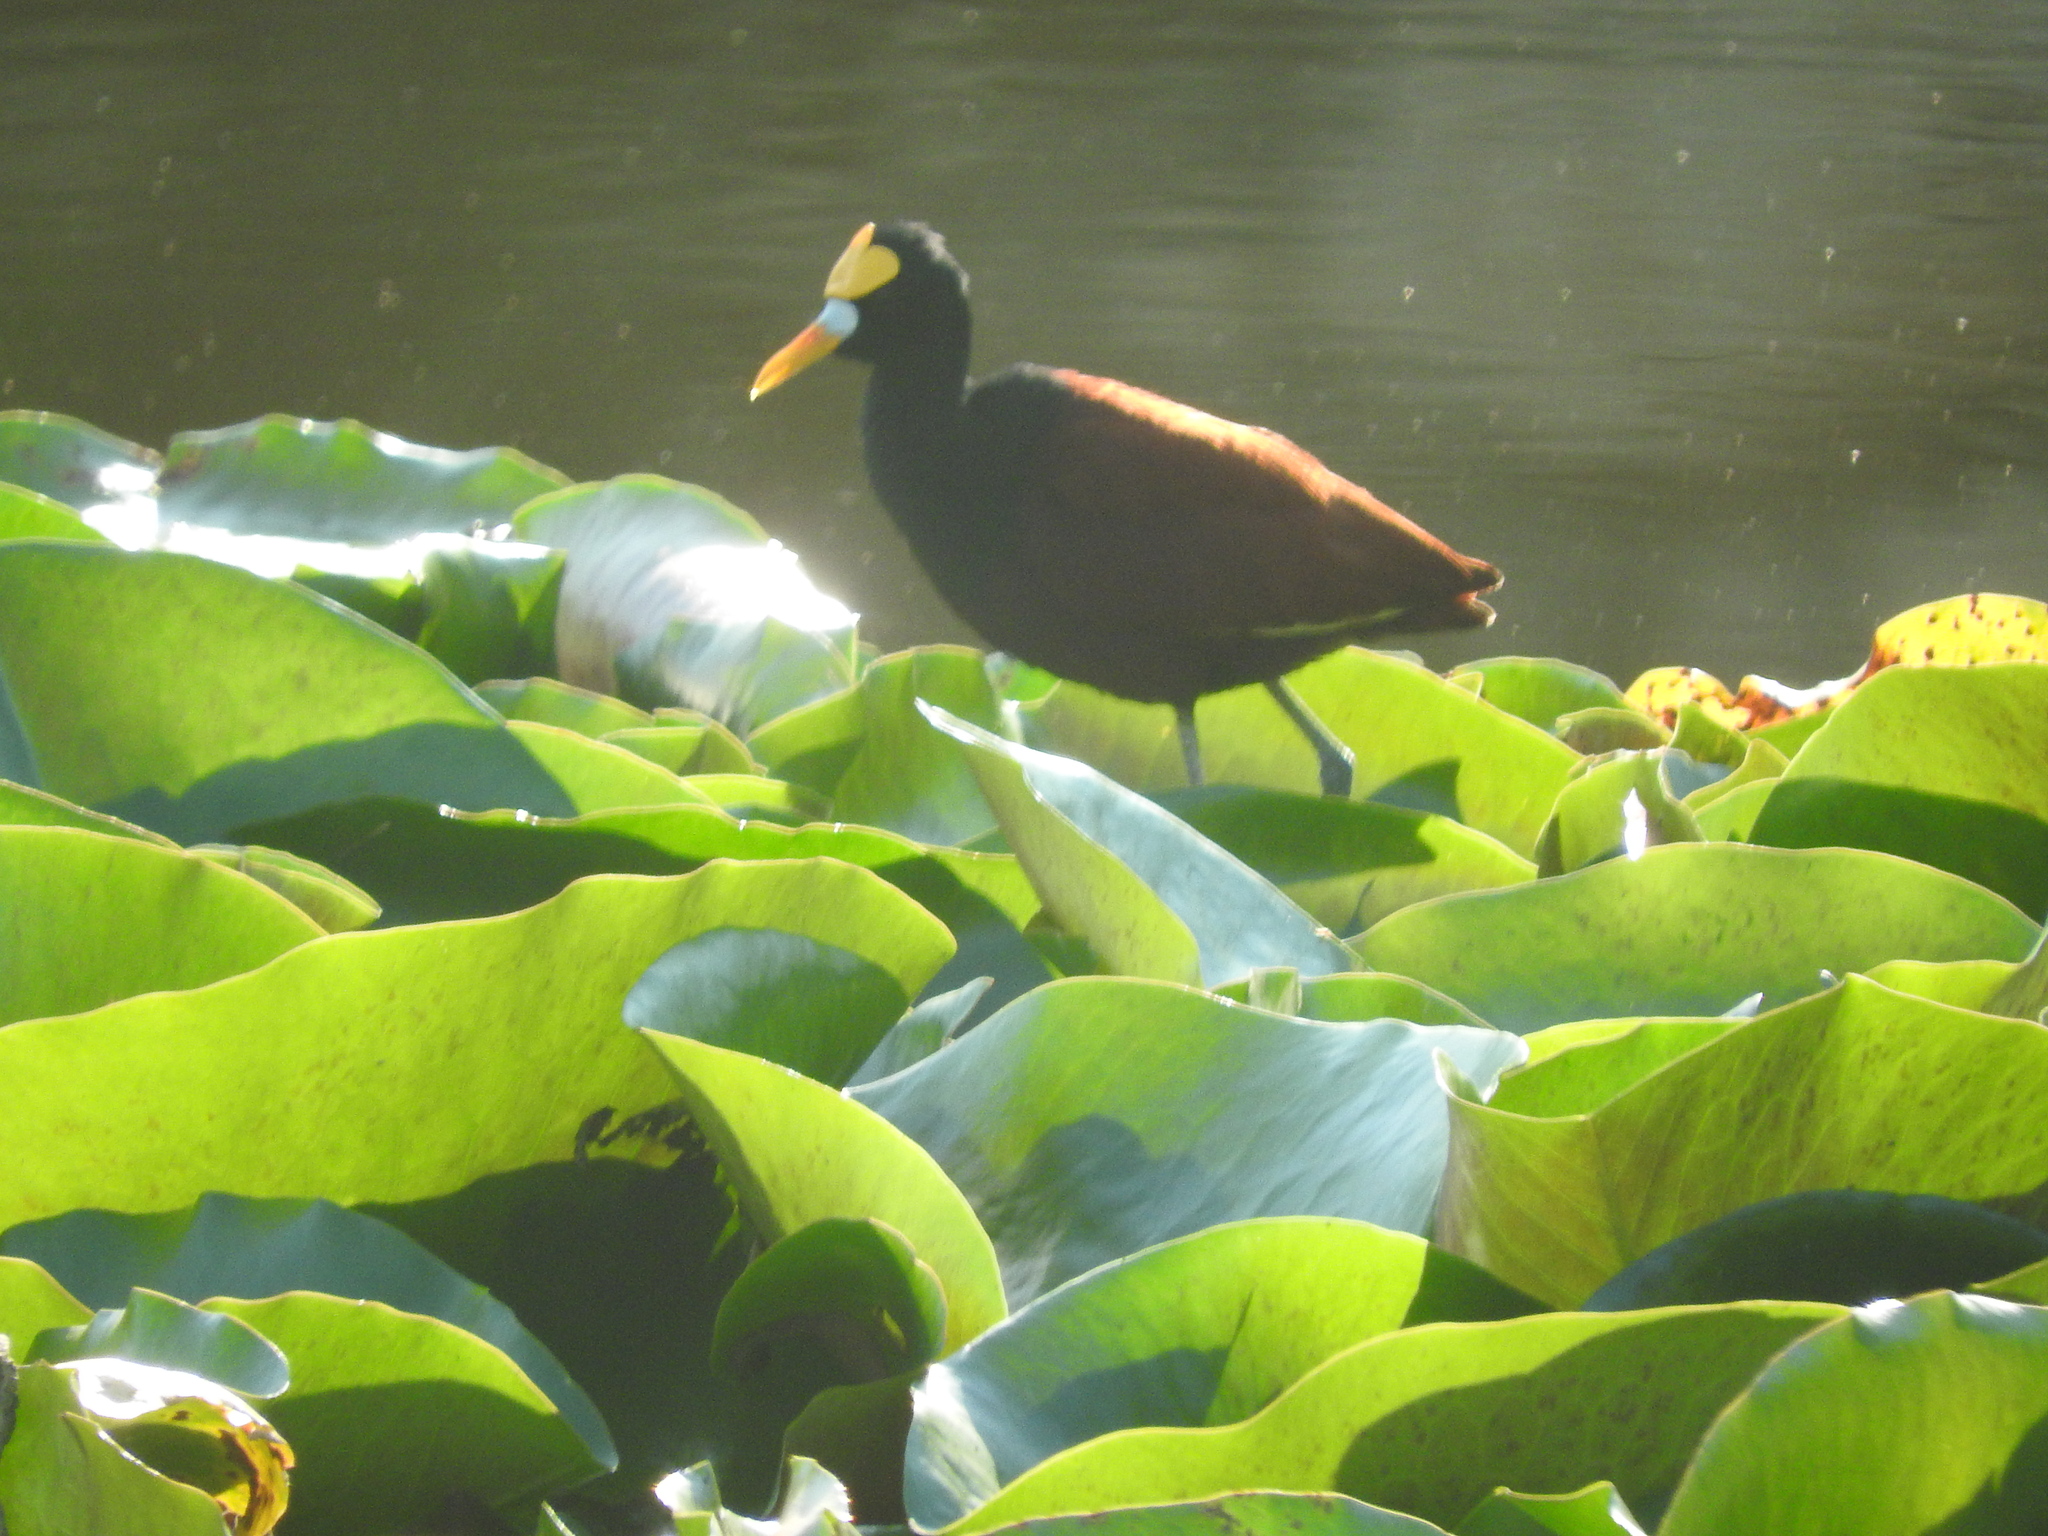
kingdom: Animalia
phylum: Chordata
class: Aves
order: Charadriiformes
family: Jacanidae
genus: Jacana
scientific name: Jacana spinosa
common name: Northern jacana
